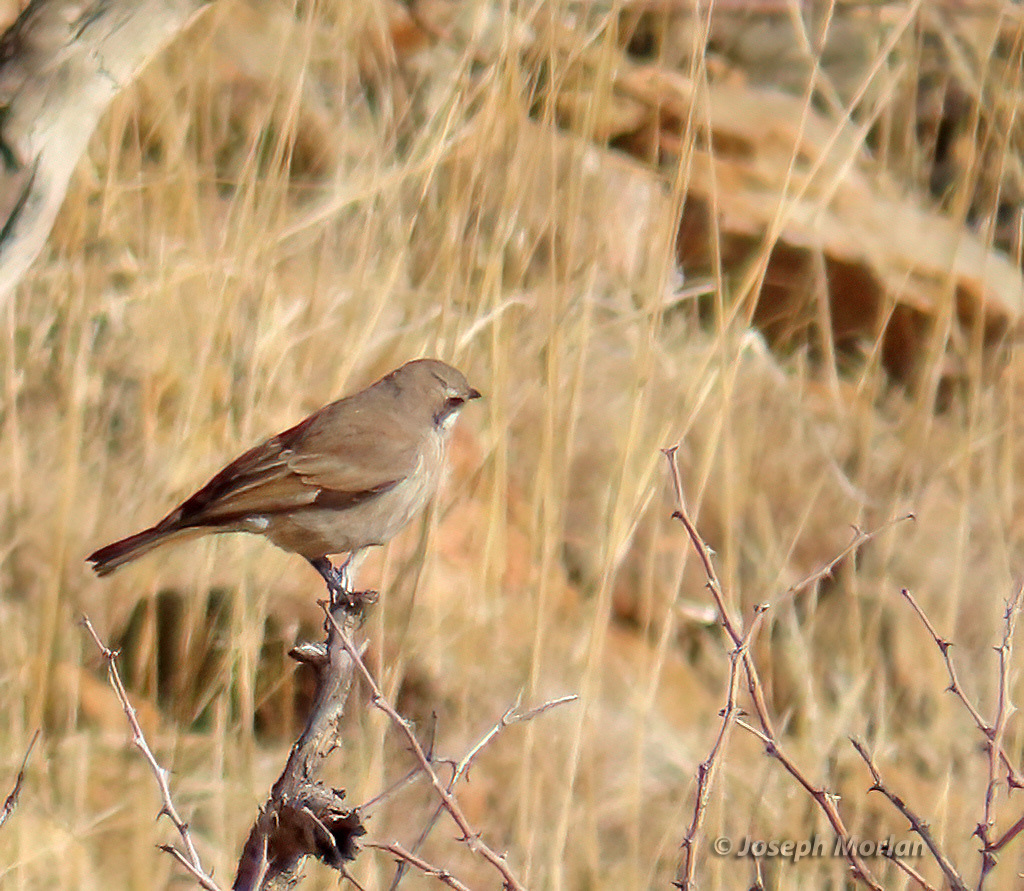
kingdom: Animalia
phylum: Chordata
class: Aves
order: Passeriformes
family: Muscicapidae
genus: Namibornis
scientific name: Namibornis herero
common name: Herero chat
